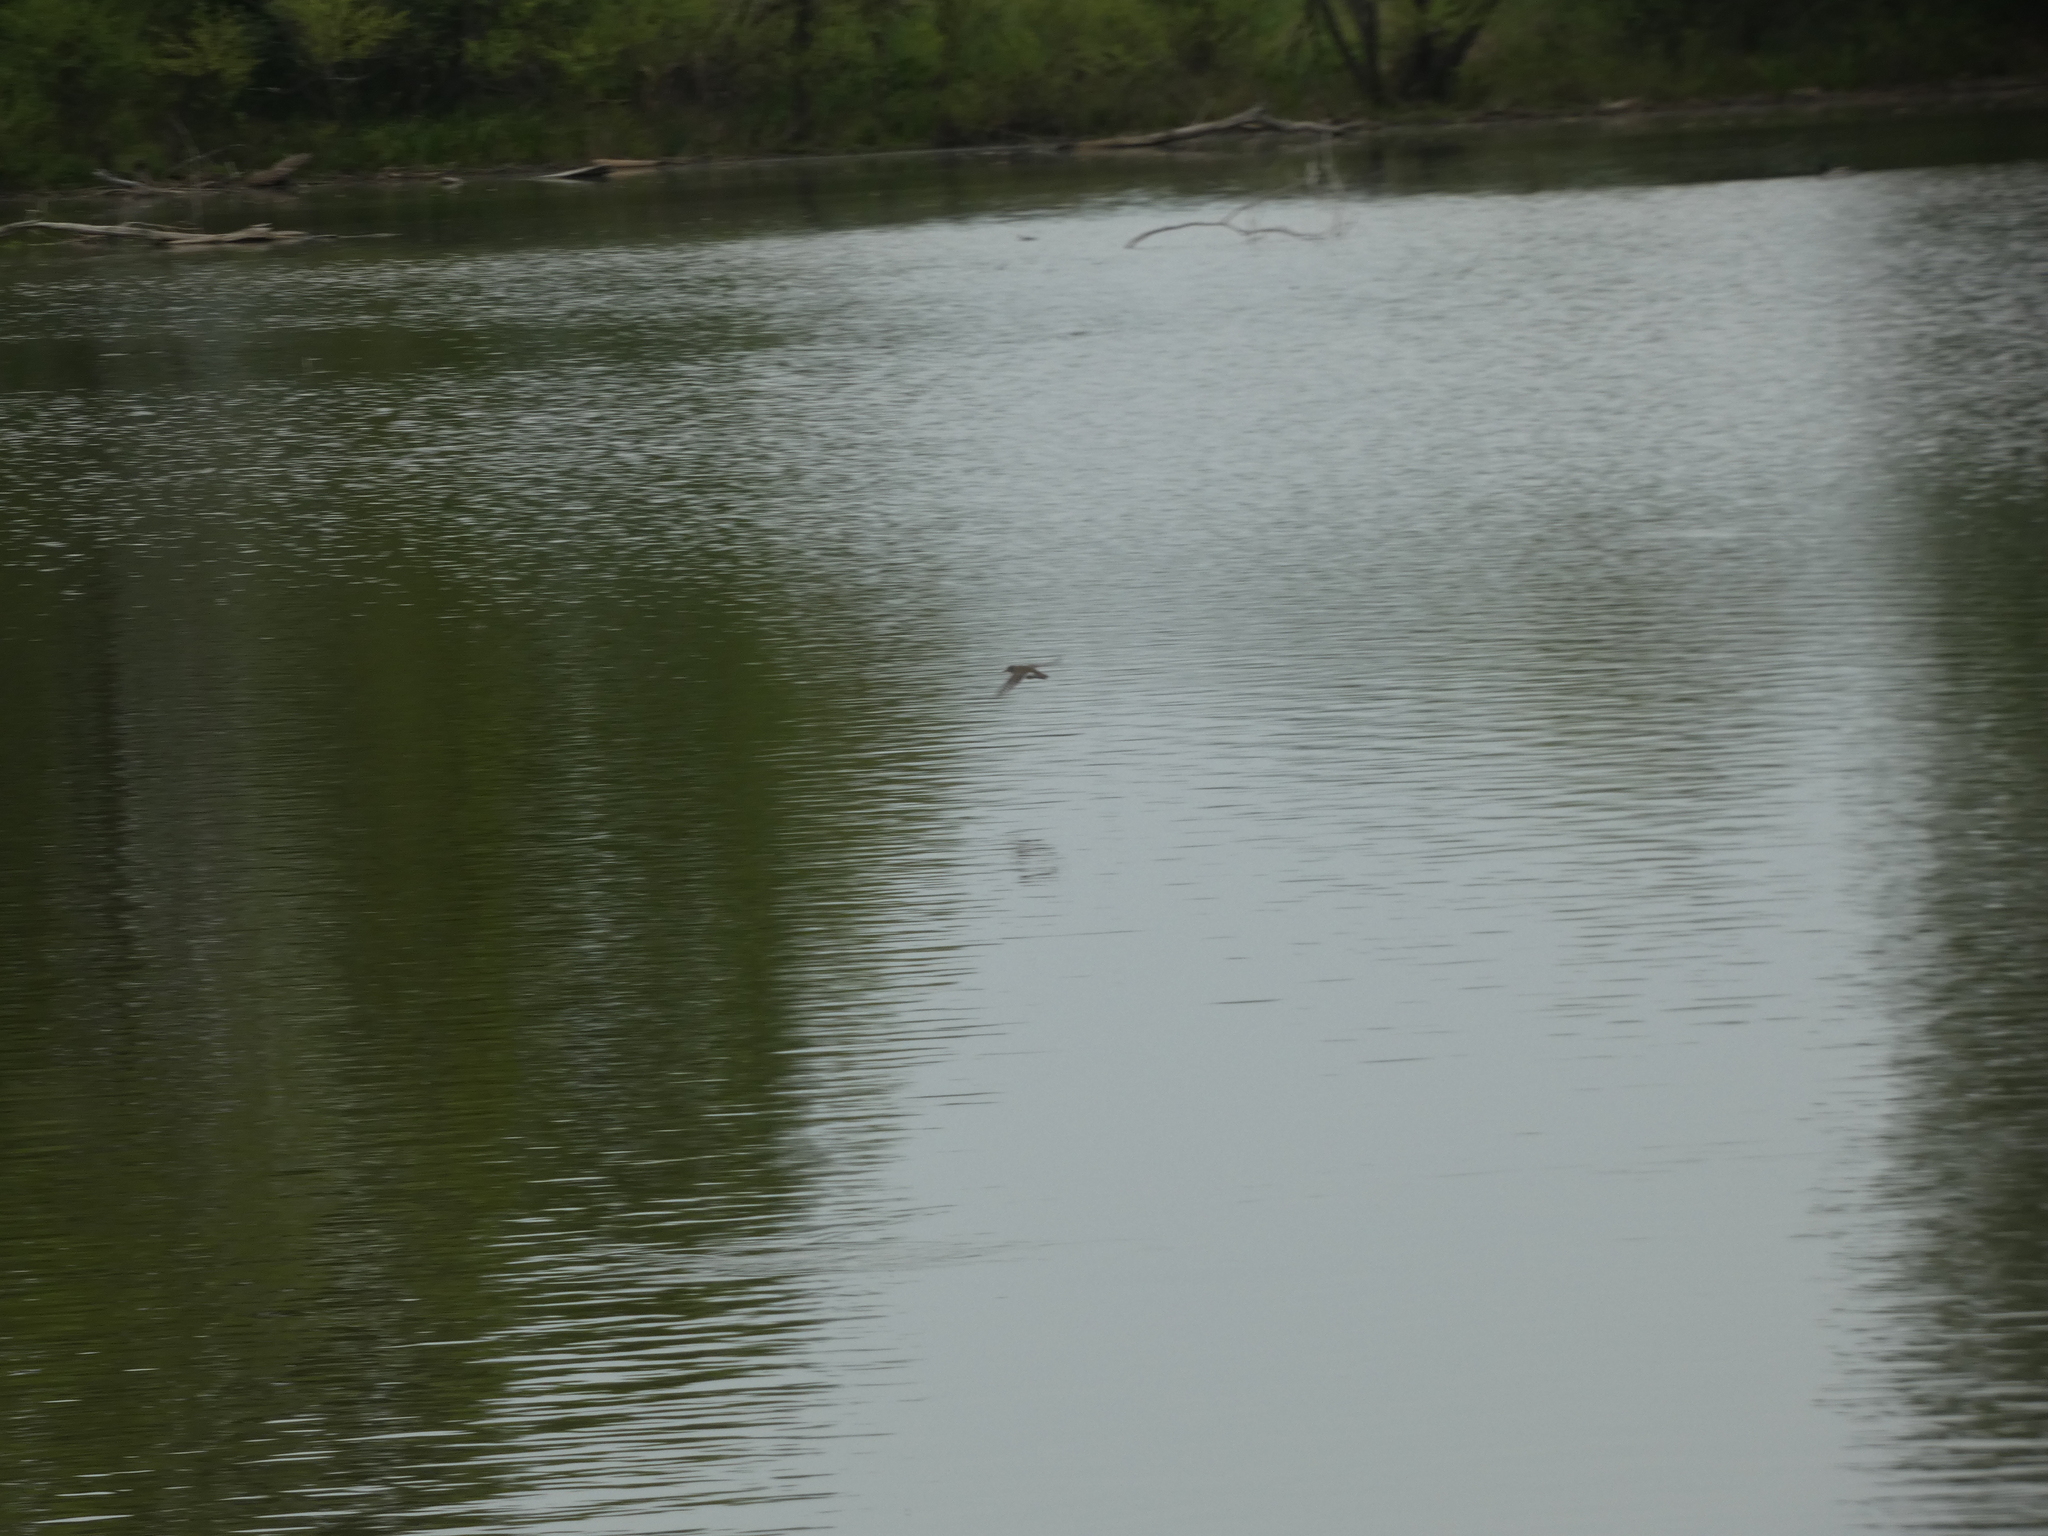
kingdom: Animalia
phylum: Chordata
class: Aves
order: Charadriiformes
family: Scolopacidae
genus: Actitis
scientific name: Actitis macularius
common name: Spotted sandpiper
